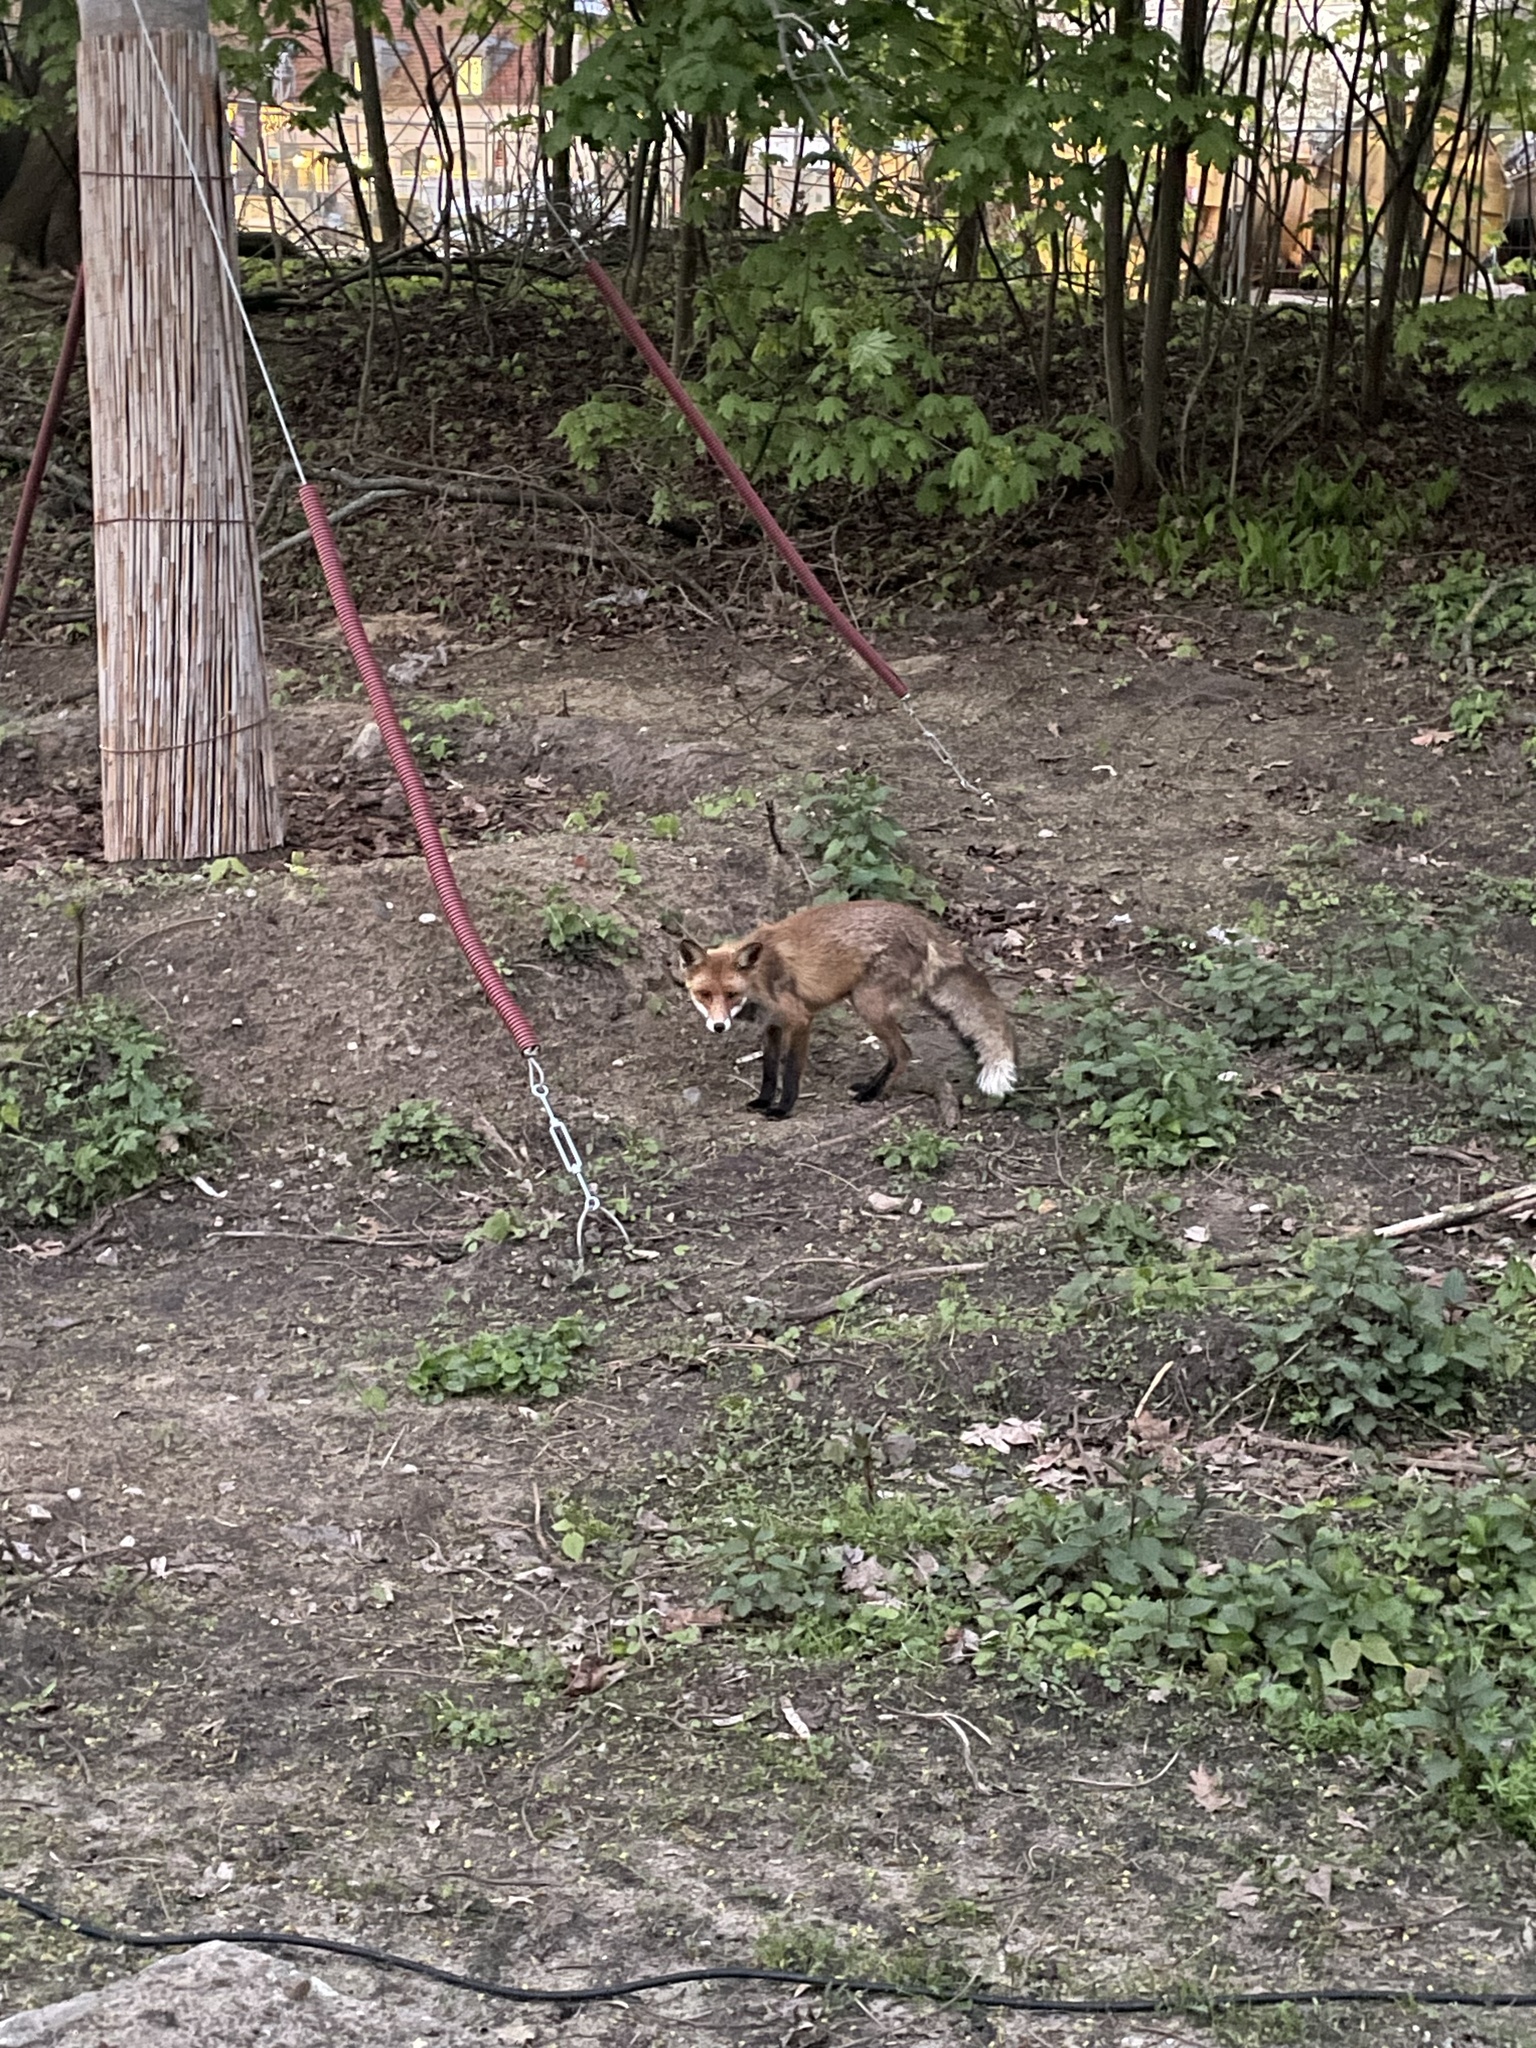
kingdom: Animalia
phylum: Chordata
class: Mammalia
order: Carnivora
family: Canidae
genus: Vulpes
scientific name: Vulpes vulpes
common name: Red fox
